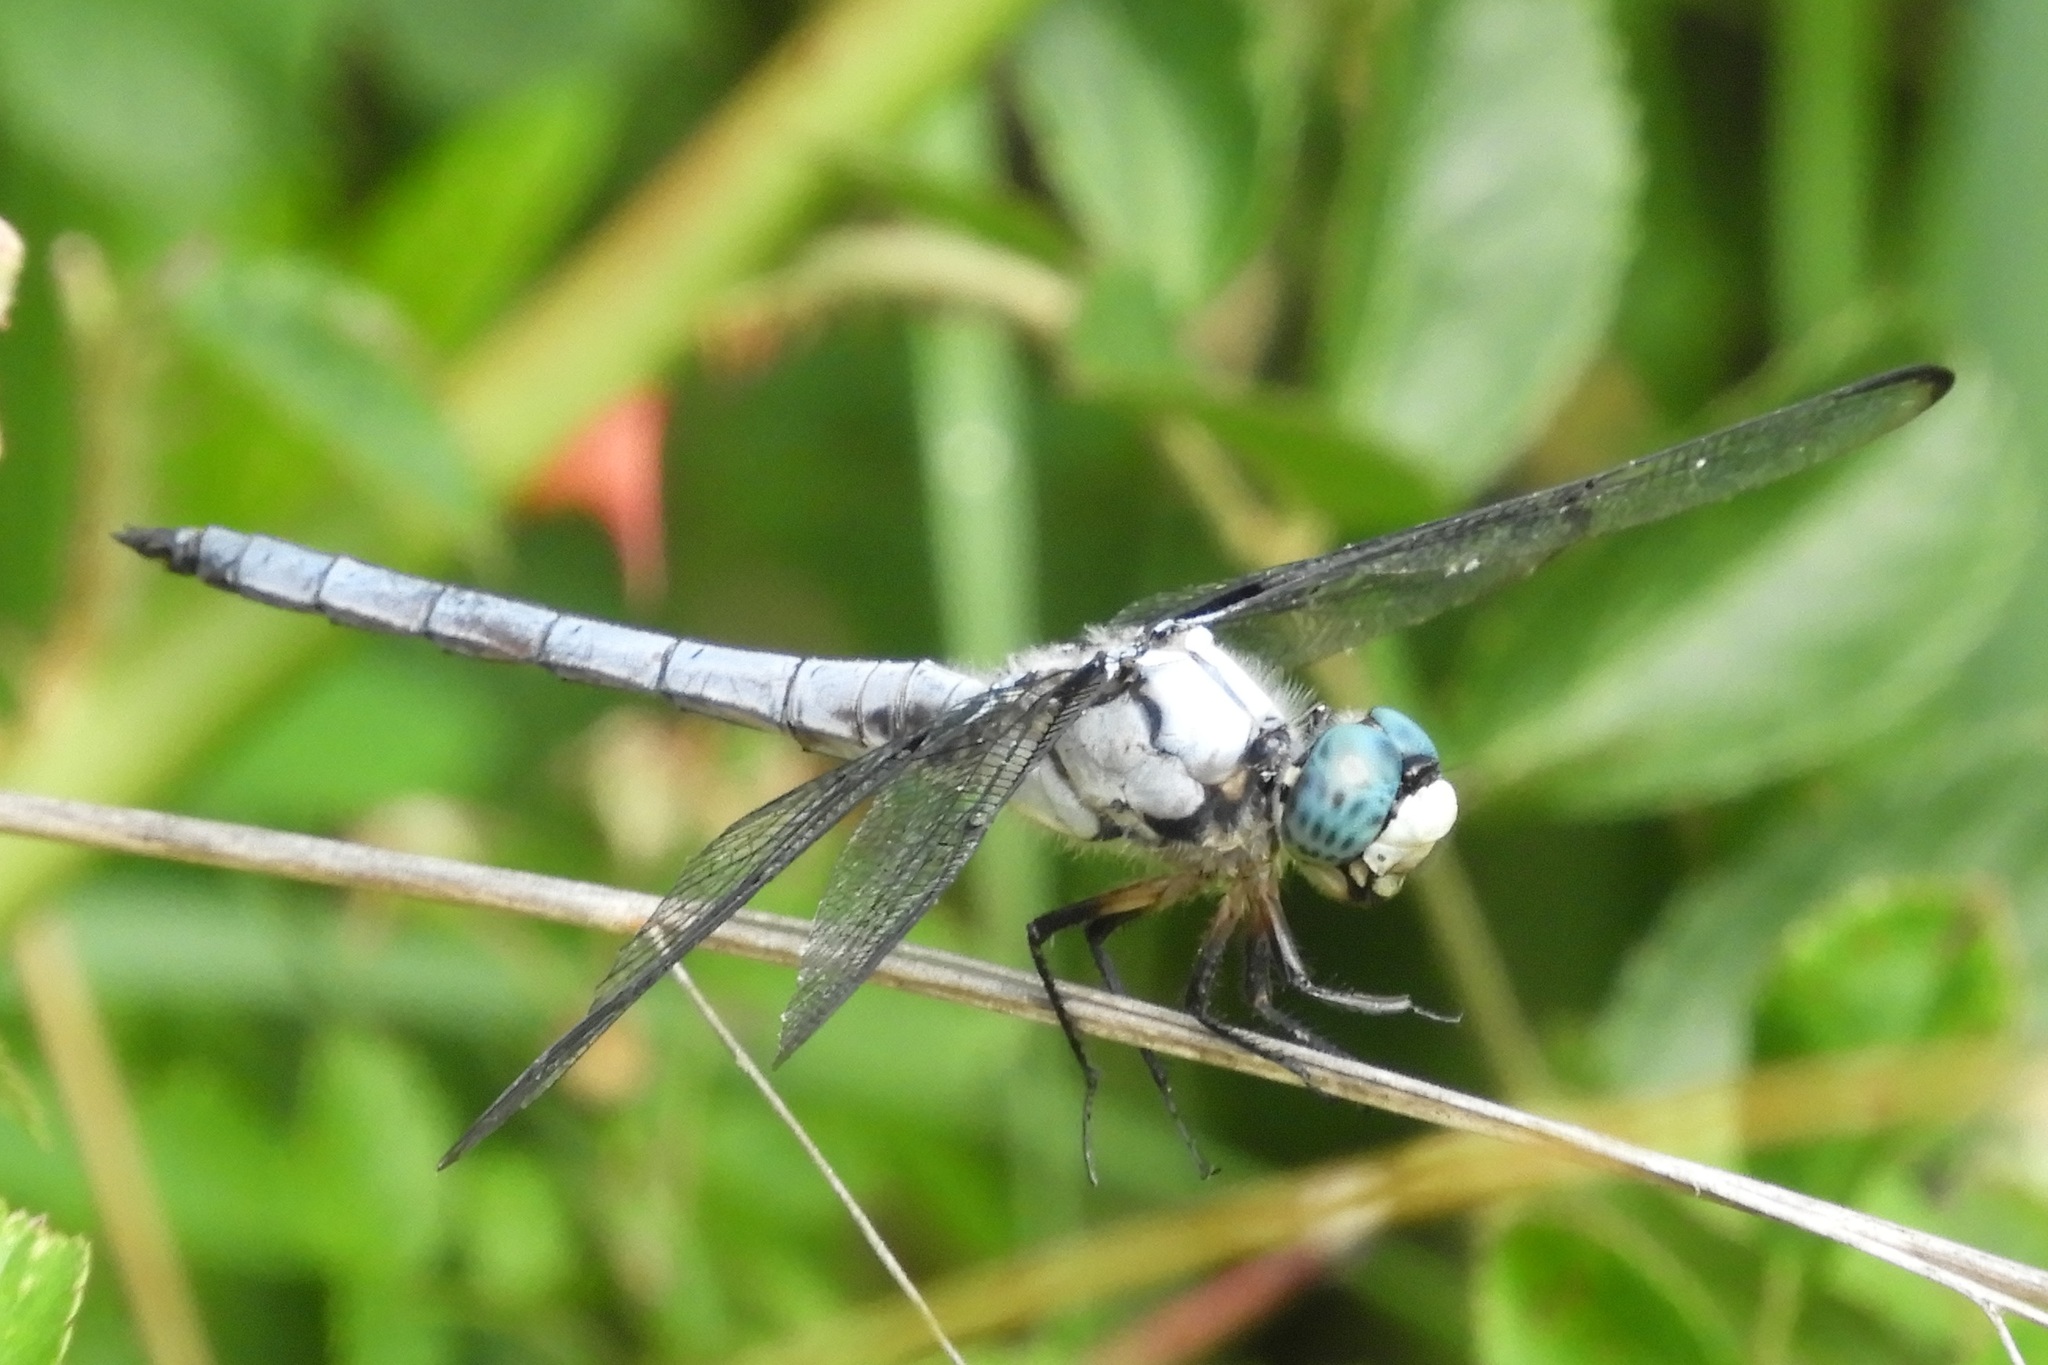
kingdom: Animalia
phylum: Arthropoda
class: Insecta
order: Odonata
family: Libellulidae
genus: Libellula
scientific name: Libellula vibrans
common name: Great blue skimmer
